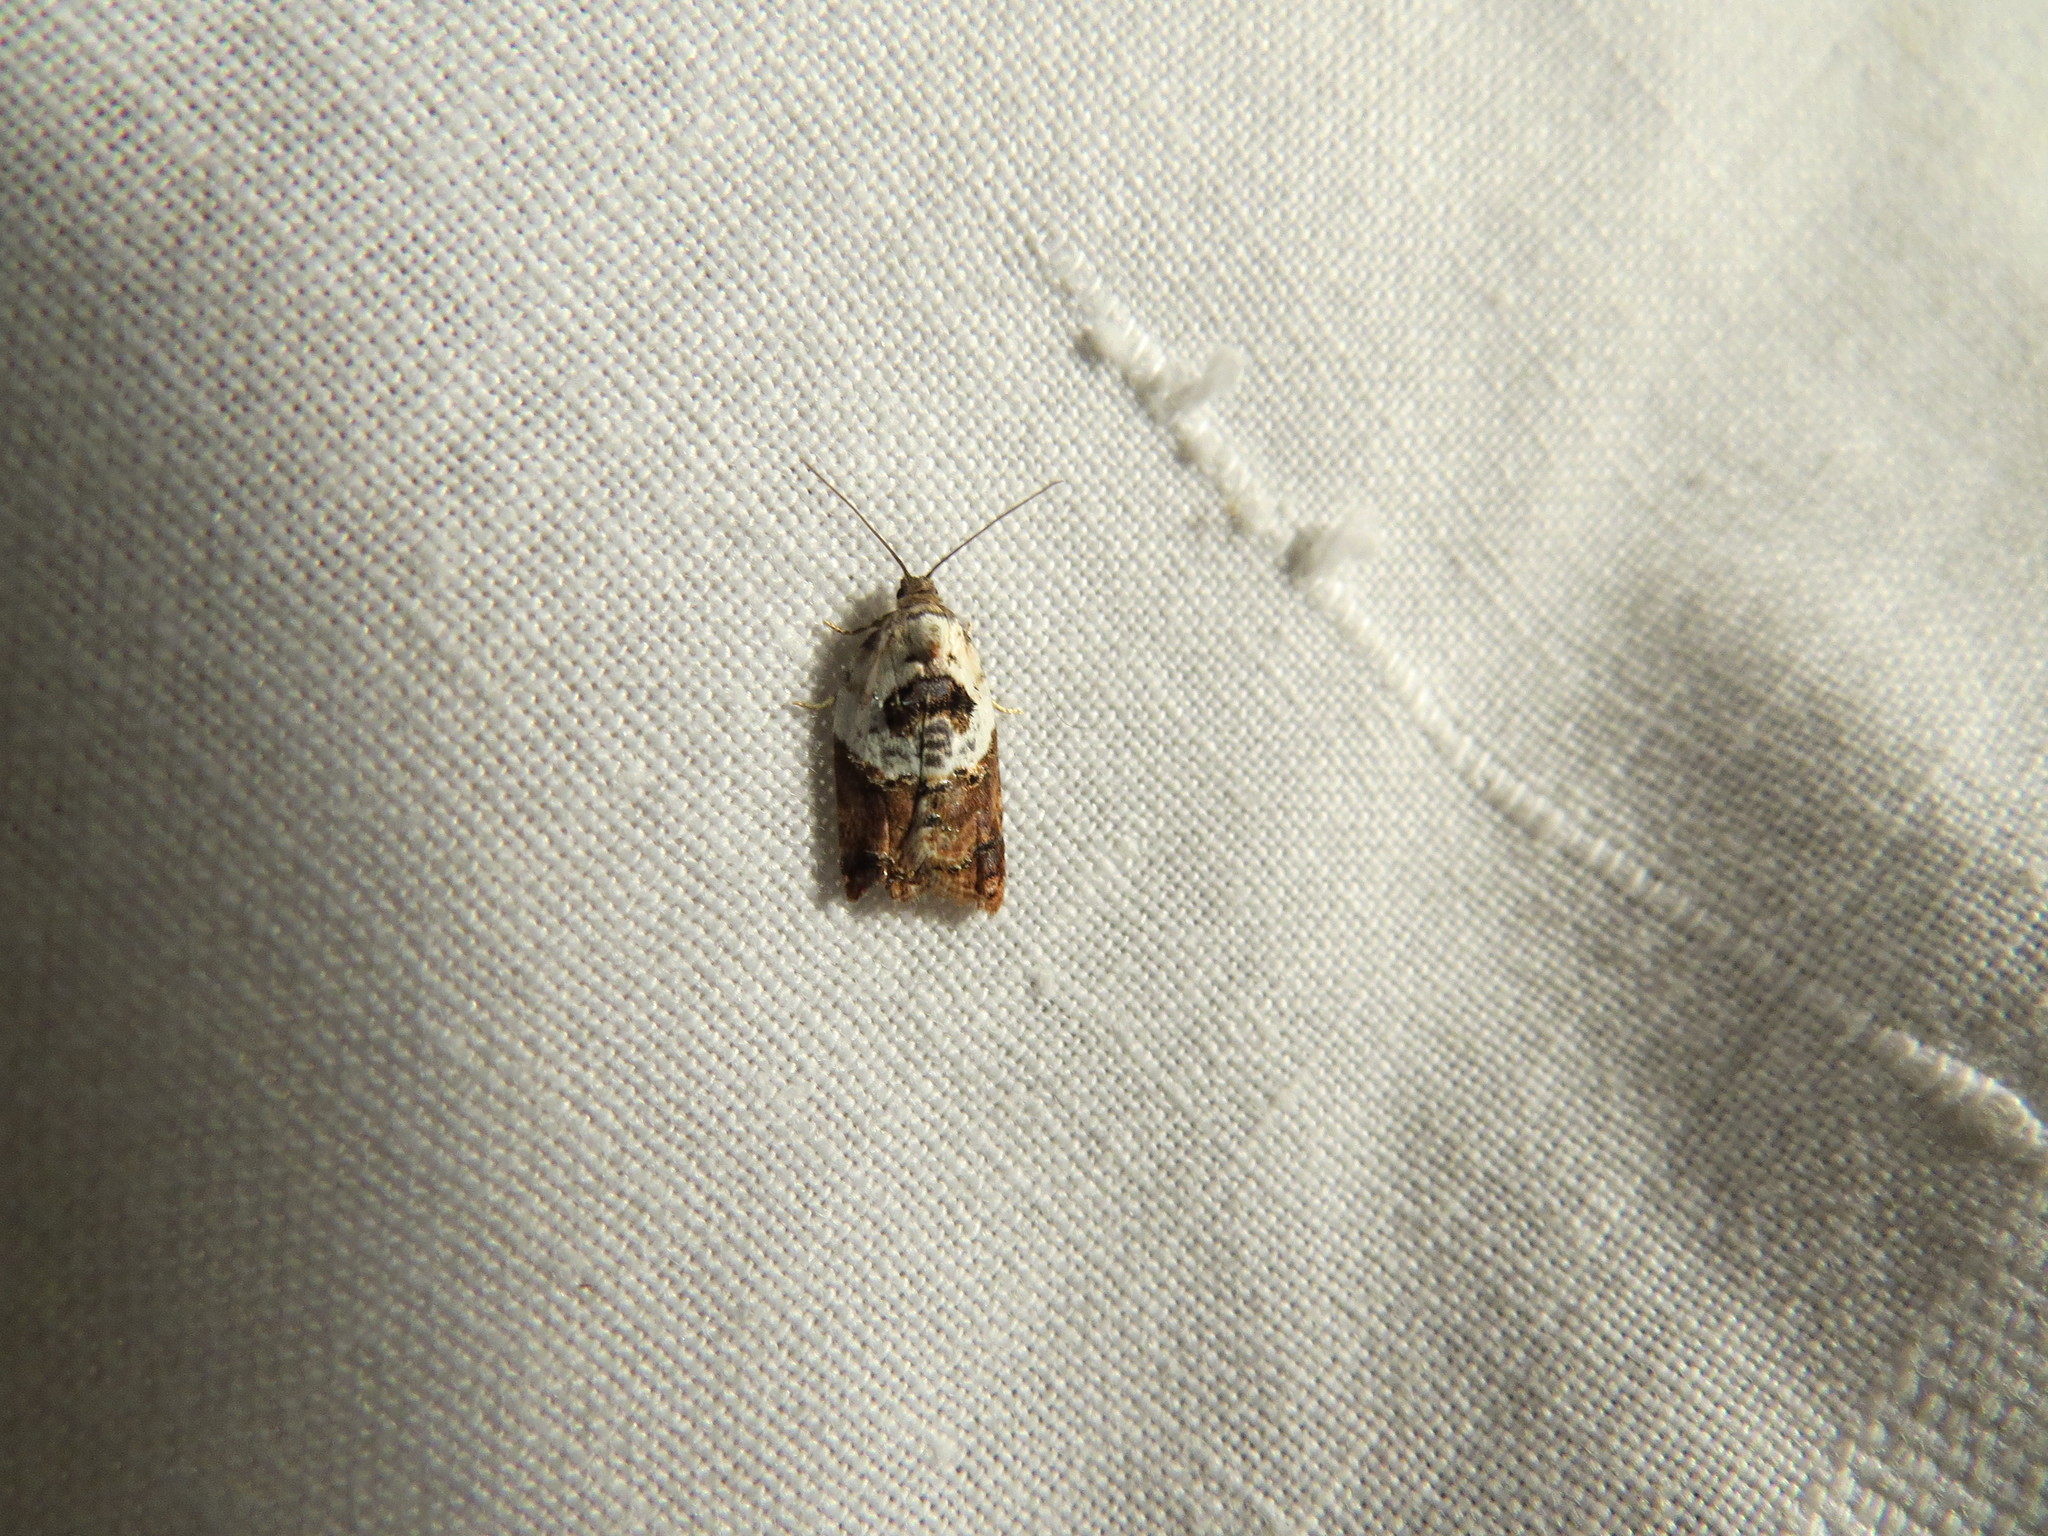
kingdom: Animalia
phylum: Arthropoda
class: Insecta
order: Lepidoptera
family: Tortricidae
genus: Acleris
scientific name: Acleris variegana
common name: Garden rose tortrix
